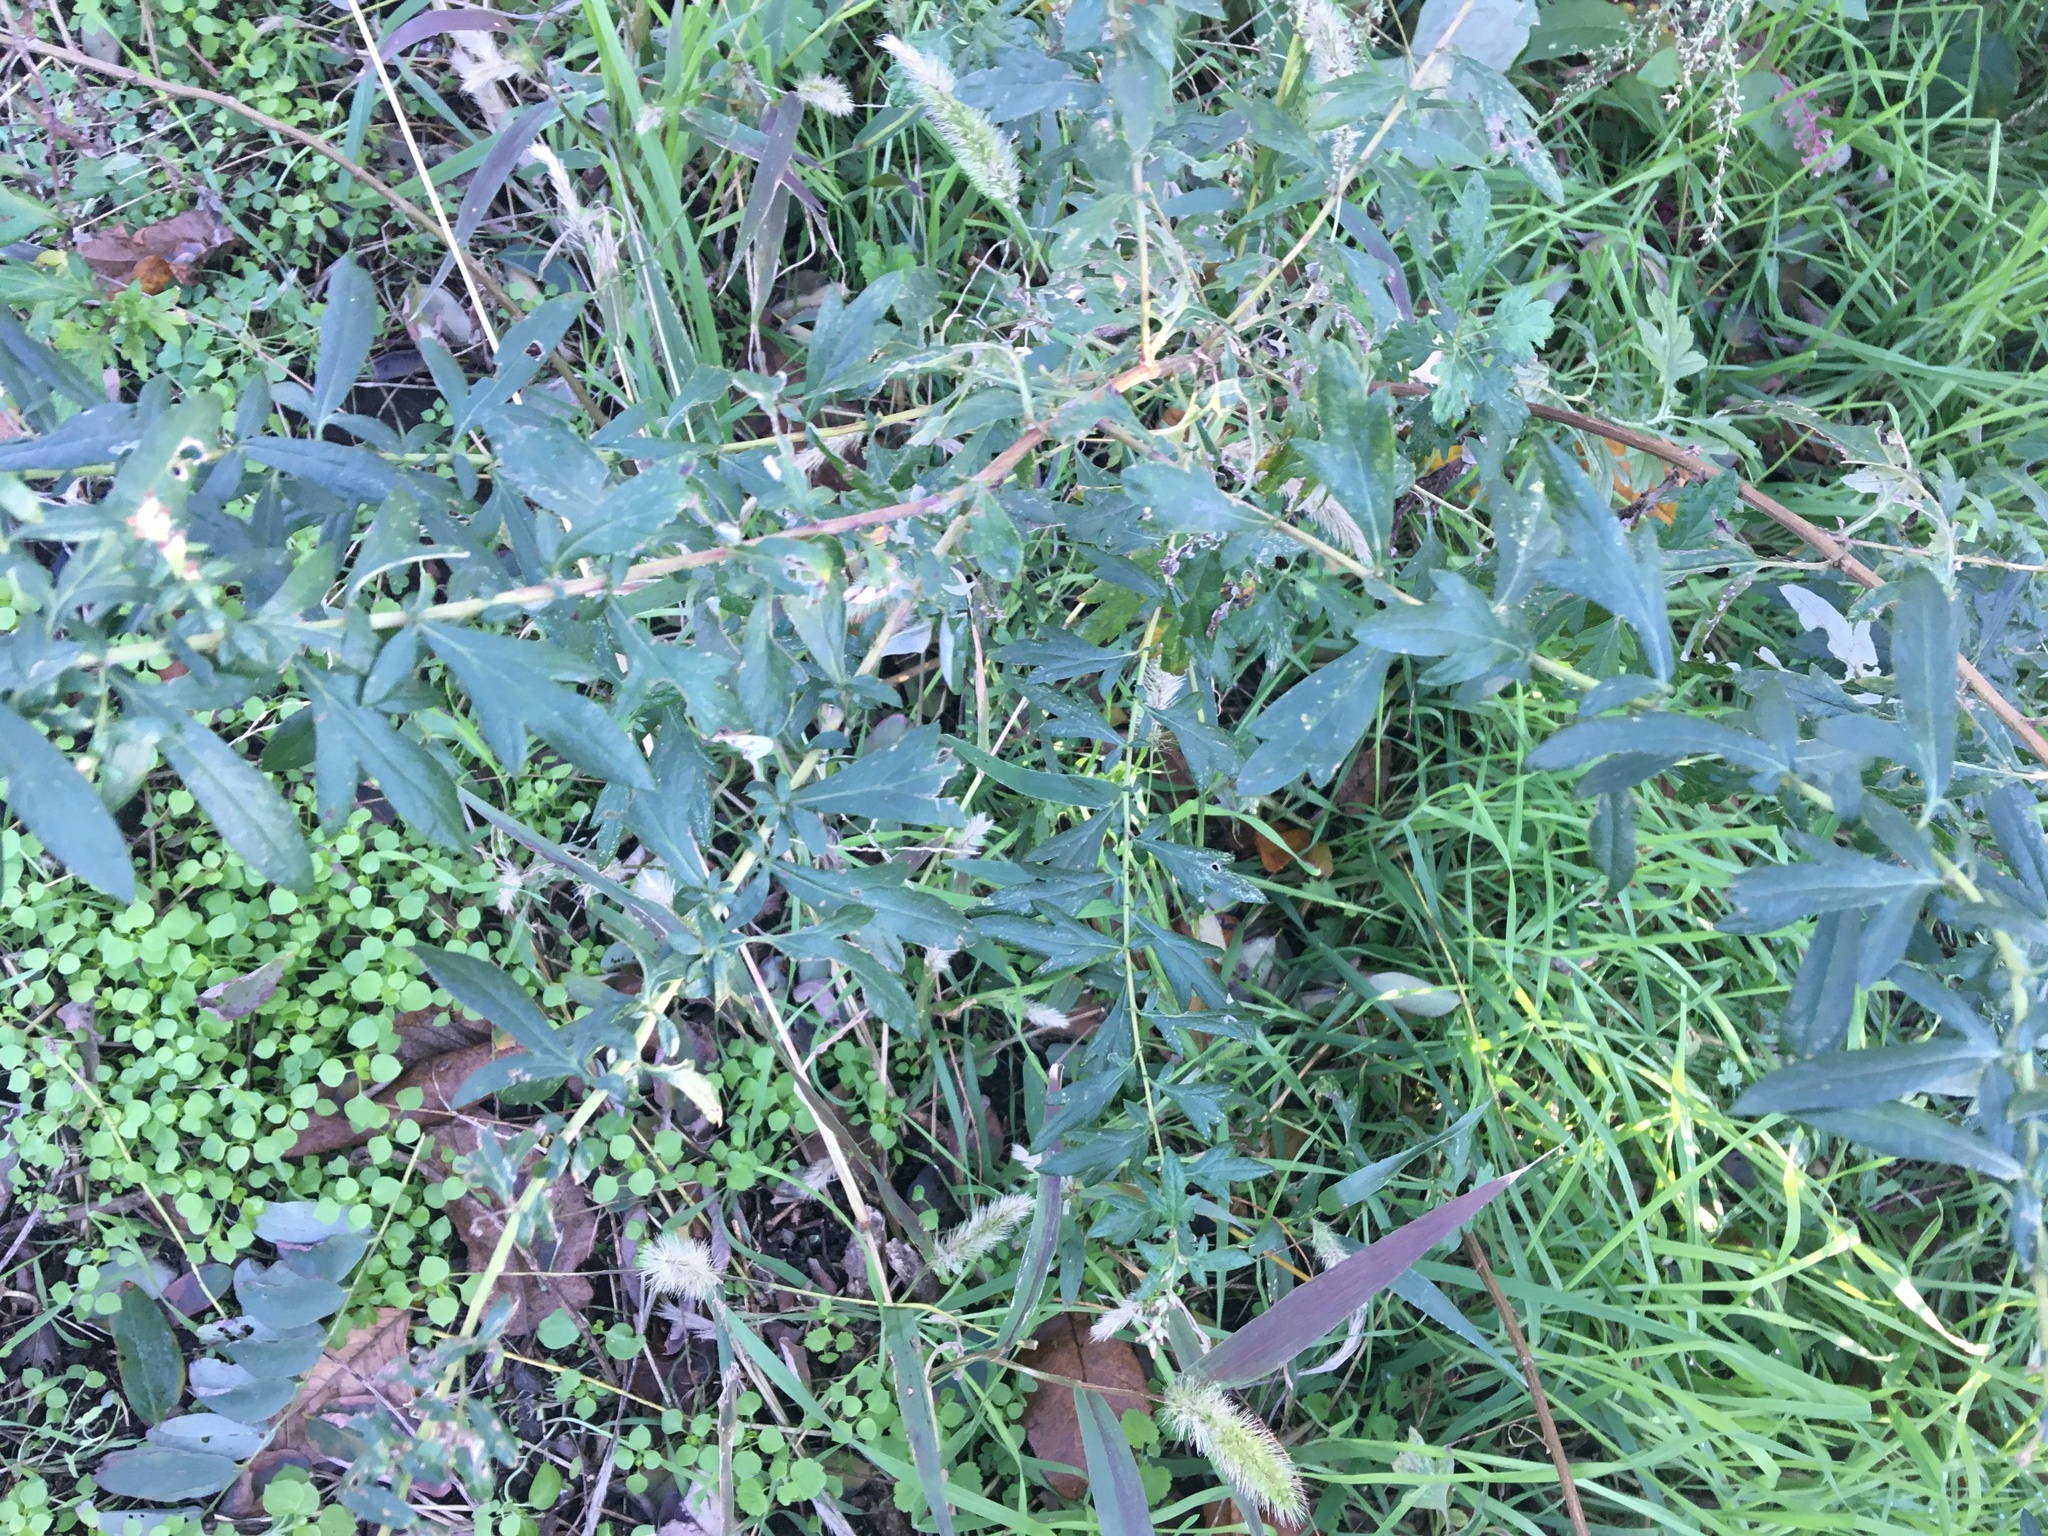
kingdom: Plantae
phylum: Tracheophyta
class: Magnoliopsida
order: Asterales
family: Asteraceae
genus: Artemisia
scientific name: Artemisia vulgaris
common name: Mugwort
